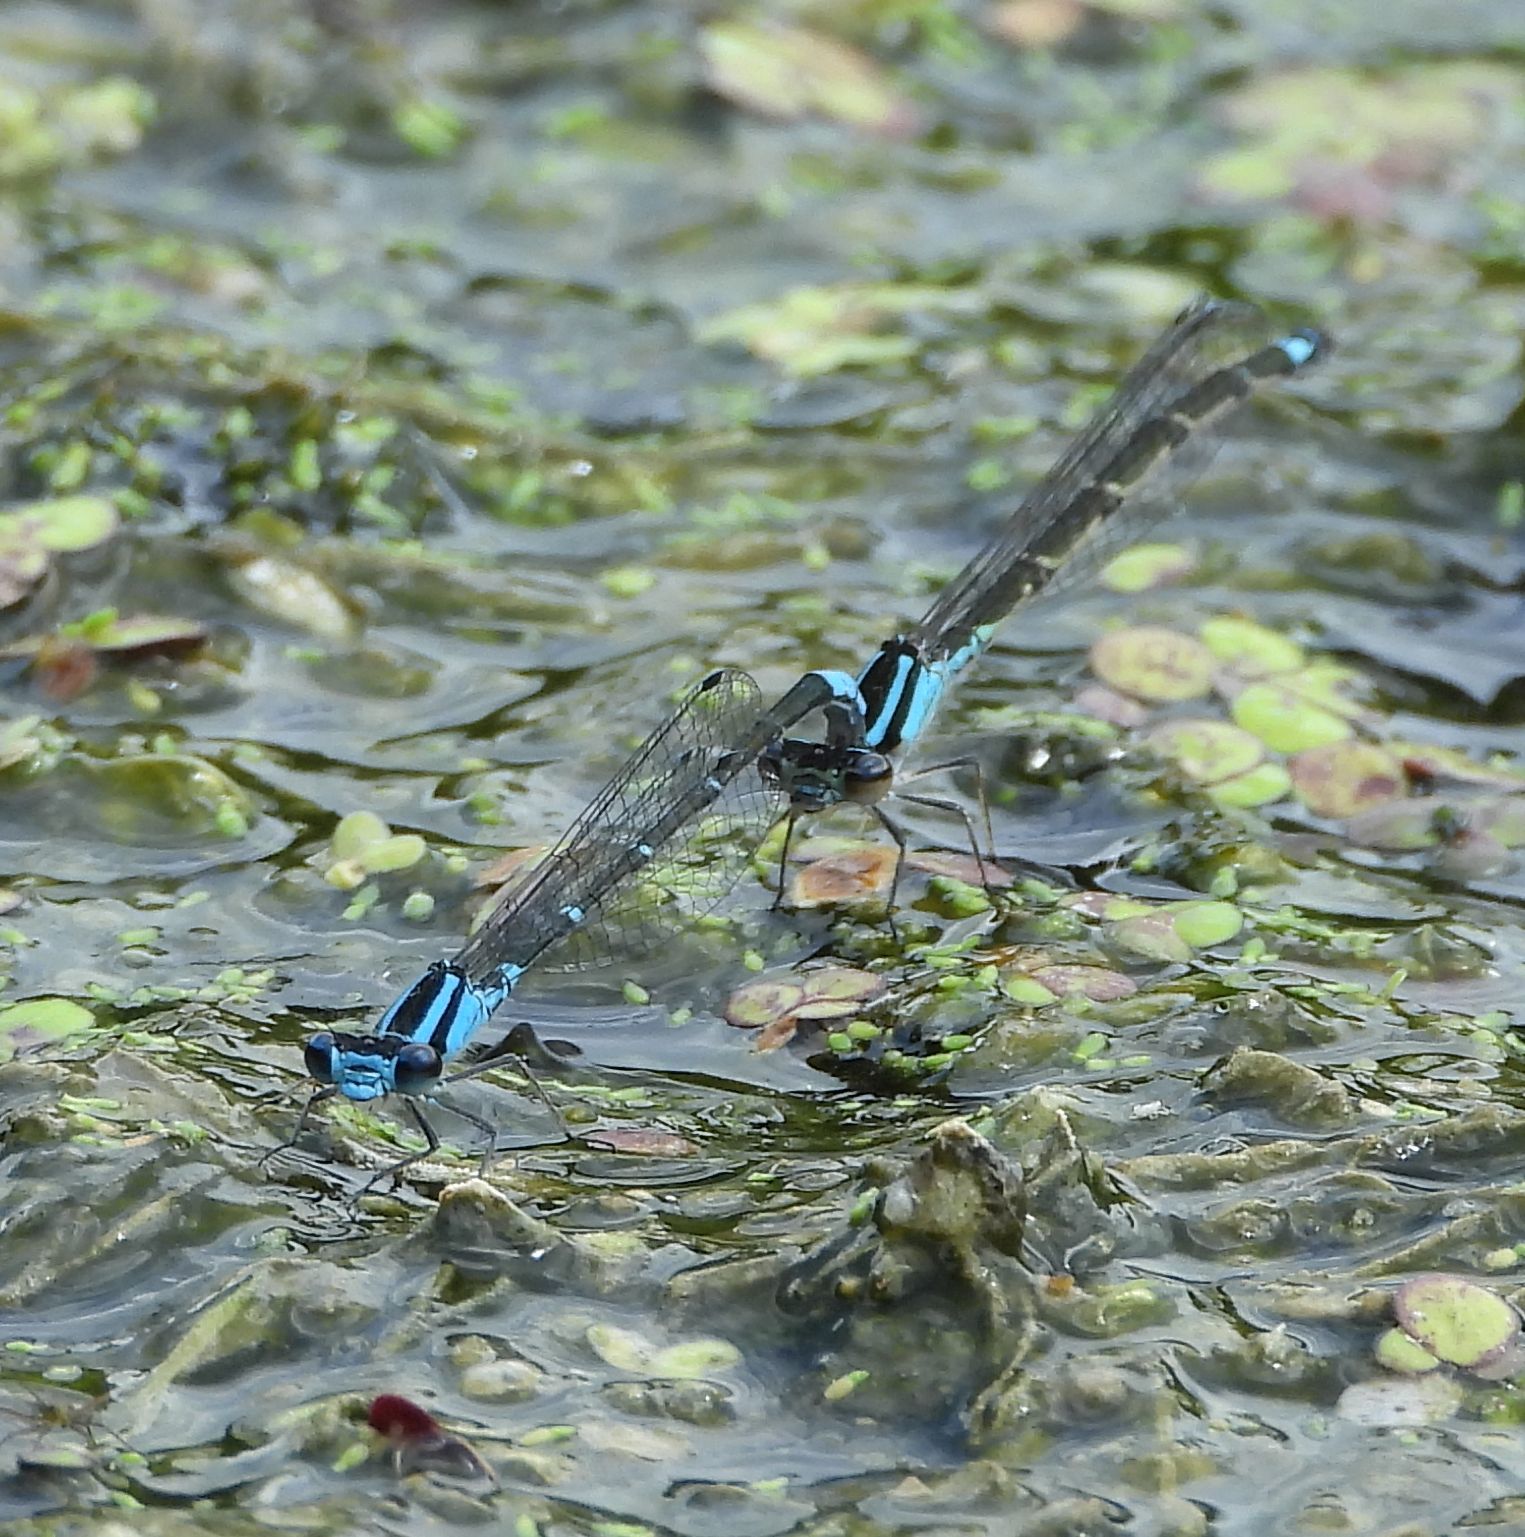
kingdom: Animalia
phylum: Arthropoda
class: Insecta
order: Odonata
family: Coenagrionidae
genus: Enallagma
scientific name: Enallagma geminatum
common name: Skimming bluet
